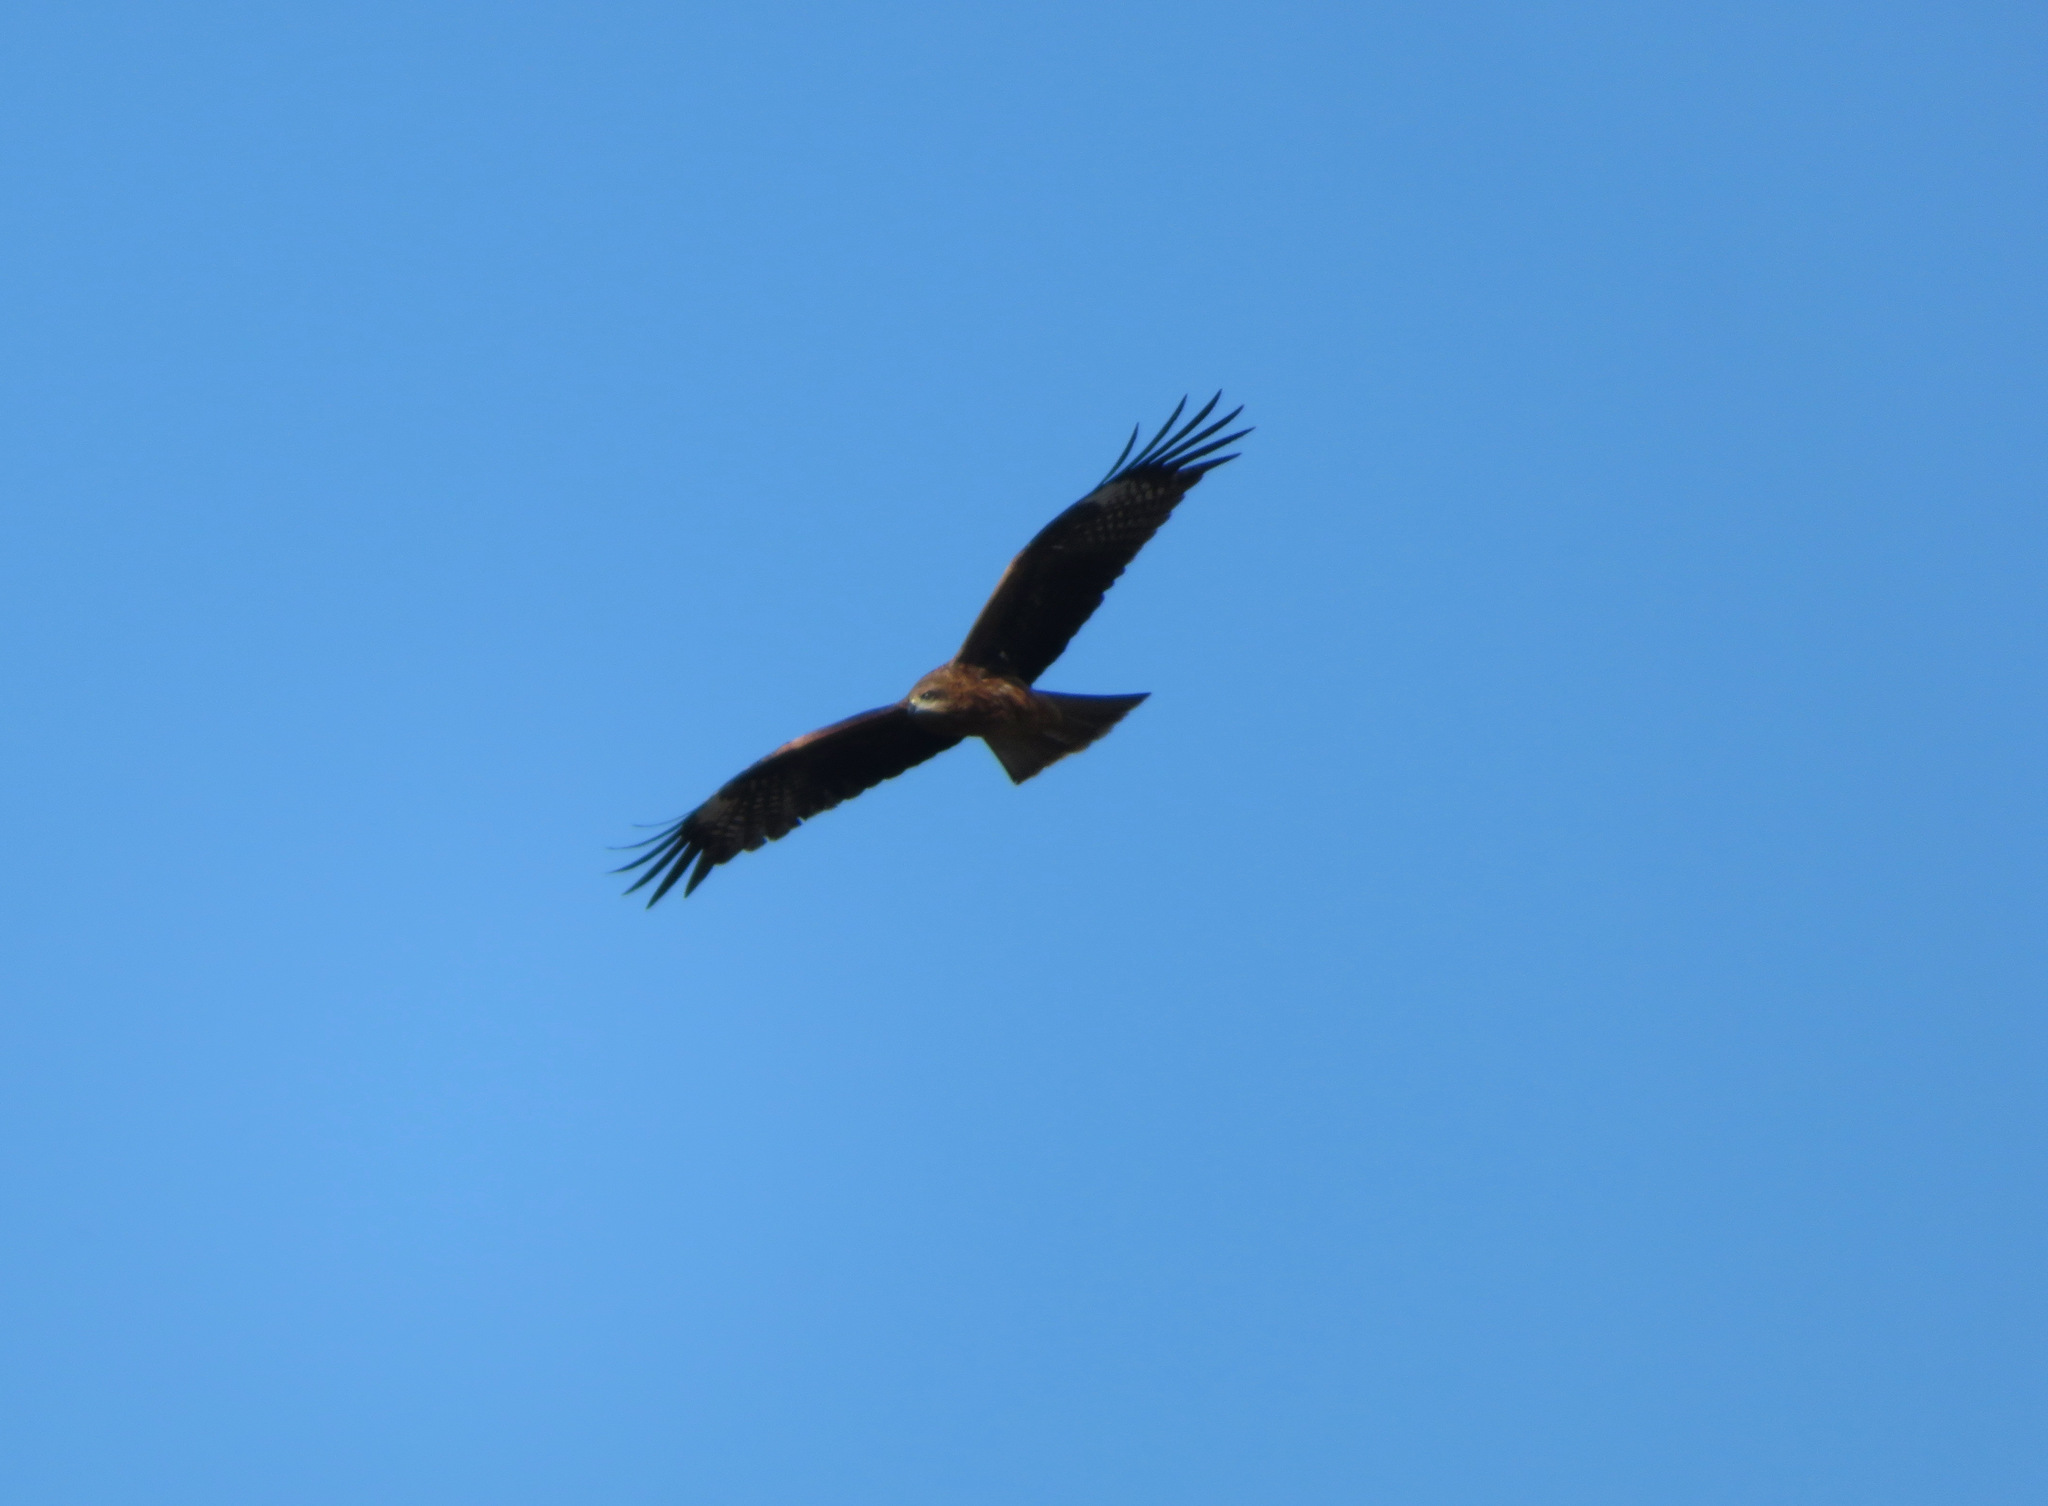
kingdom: Animalia
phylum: Chordata
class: Aves
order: Accipitriformes
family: Accipitridae
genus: Milvus
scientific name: Milvus migrans
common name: Black kite
